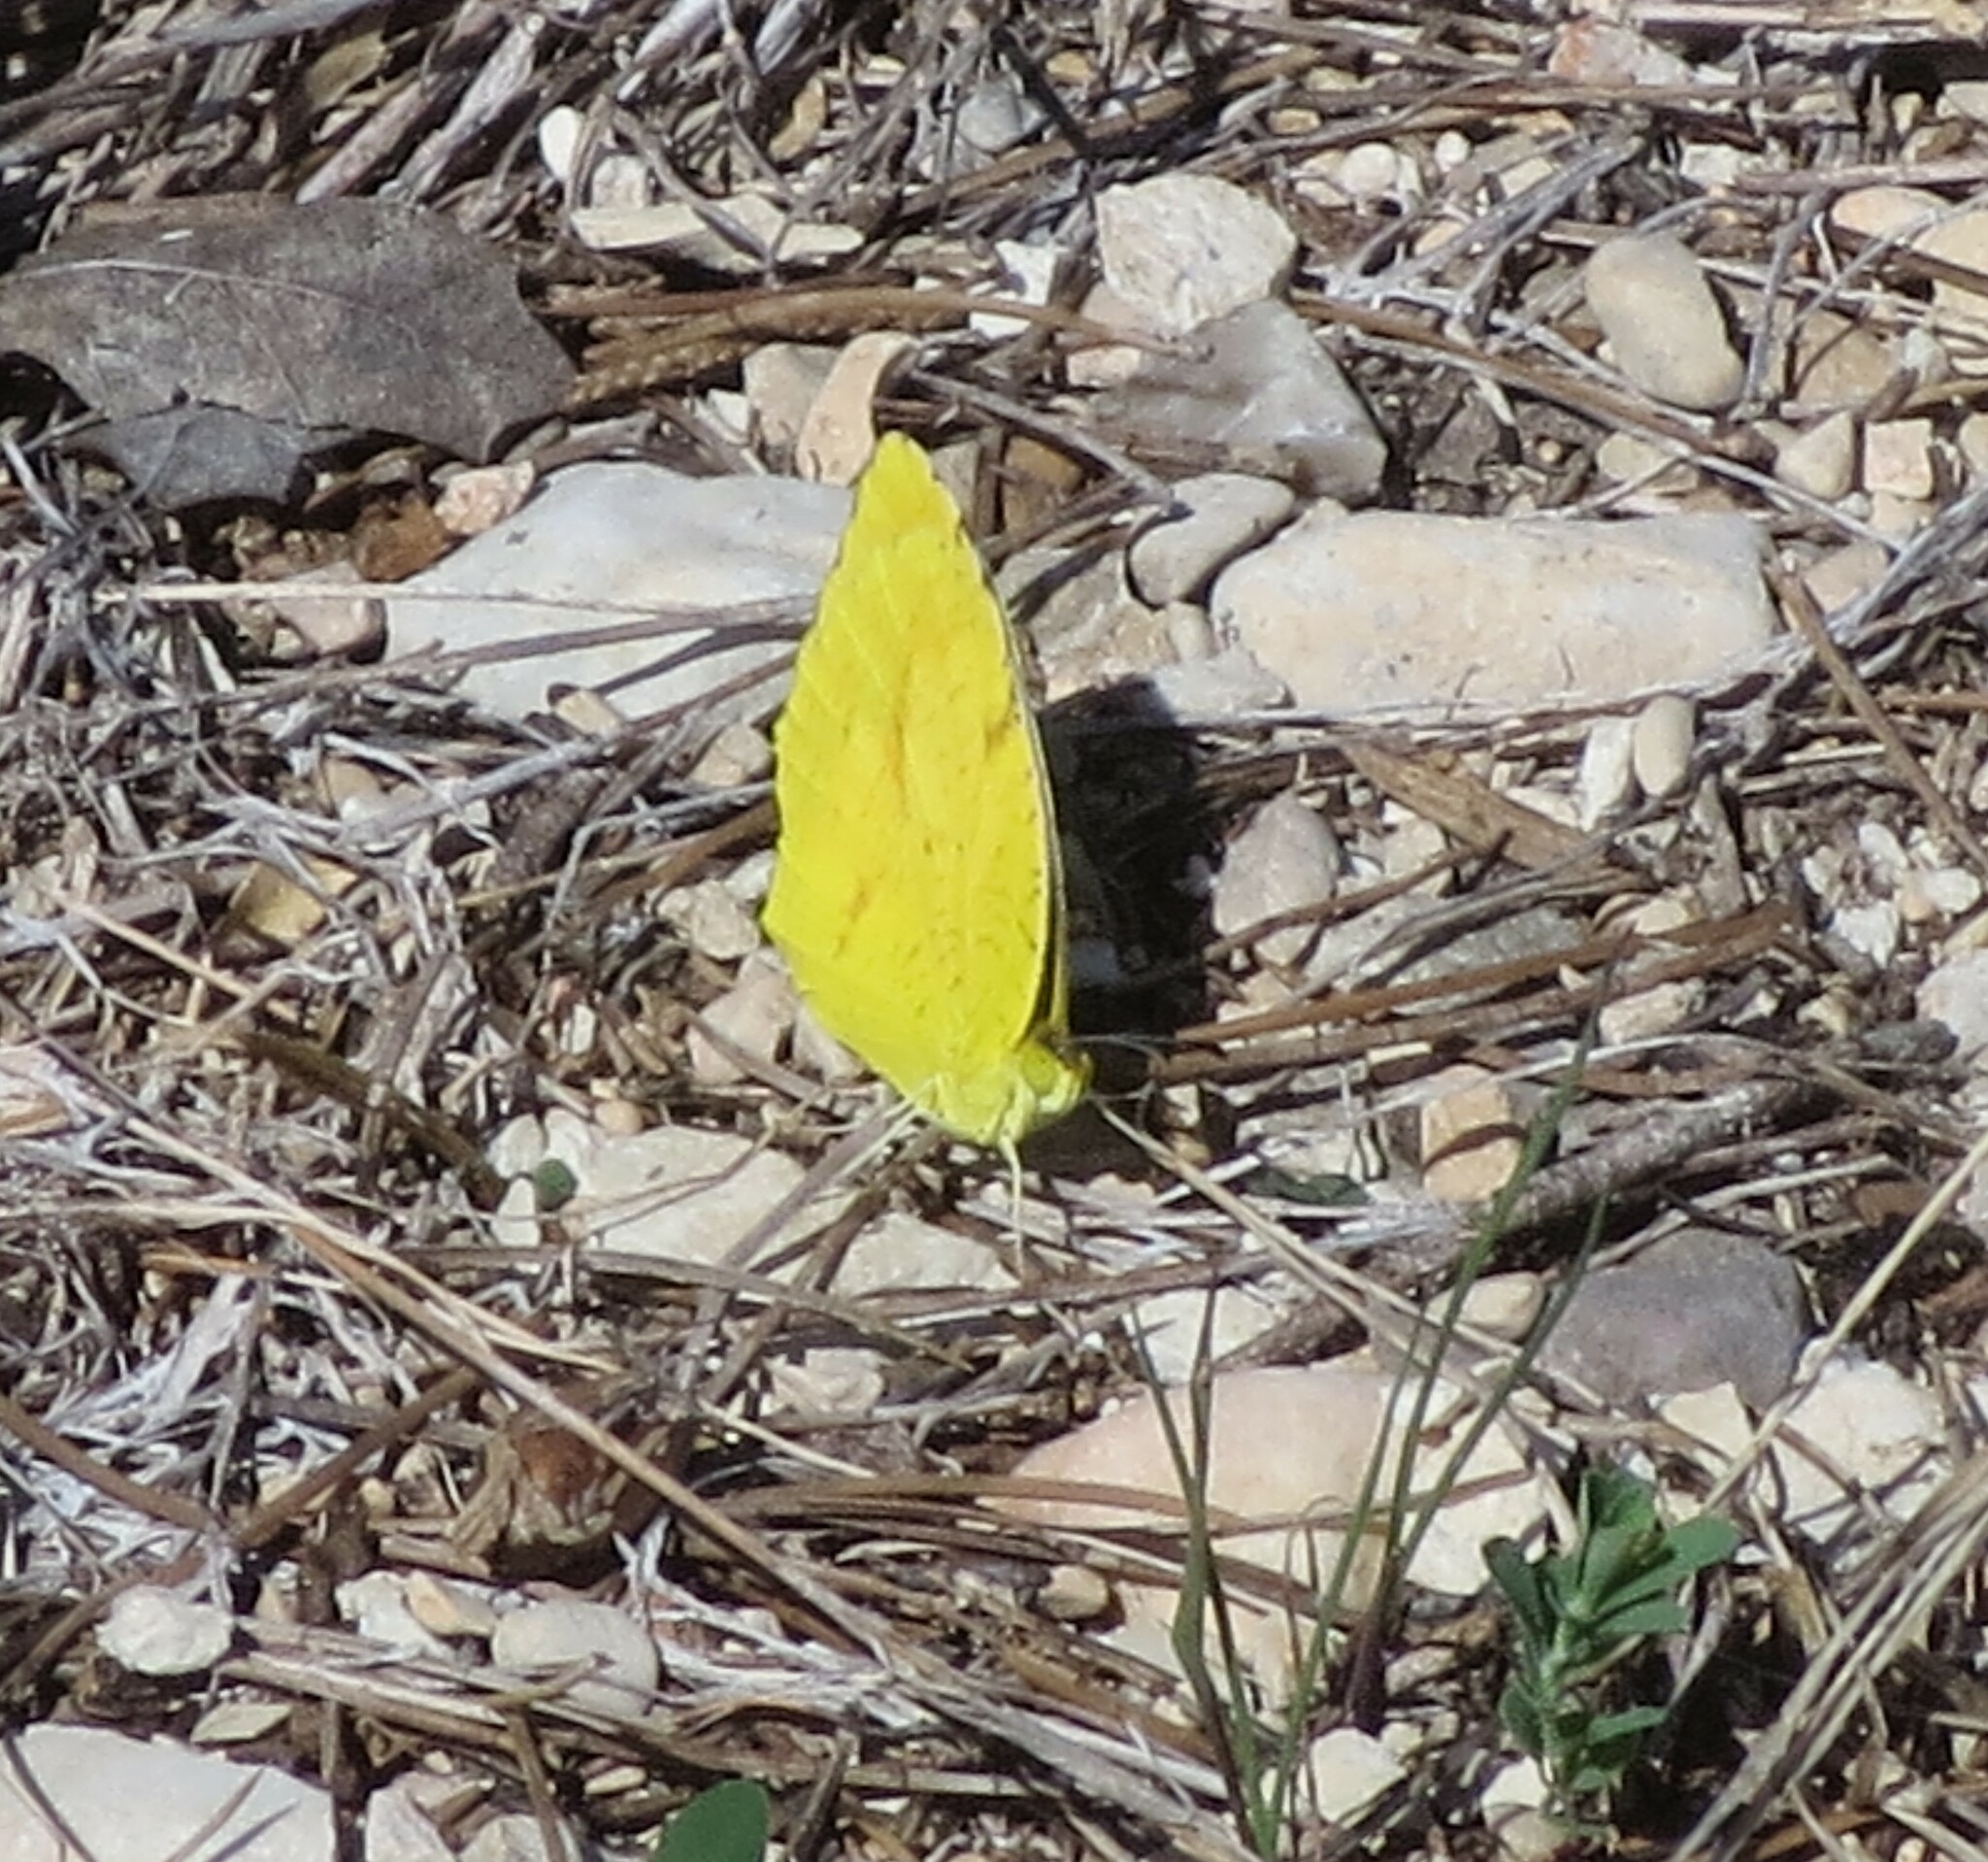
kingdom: Animalia
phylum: Arthropoda
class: Insecta
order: Lepidoptera
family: Pieridae
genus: Abaeis
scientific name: Abaeis nicippe
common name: Sleepy orange
